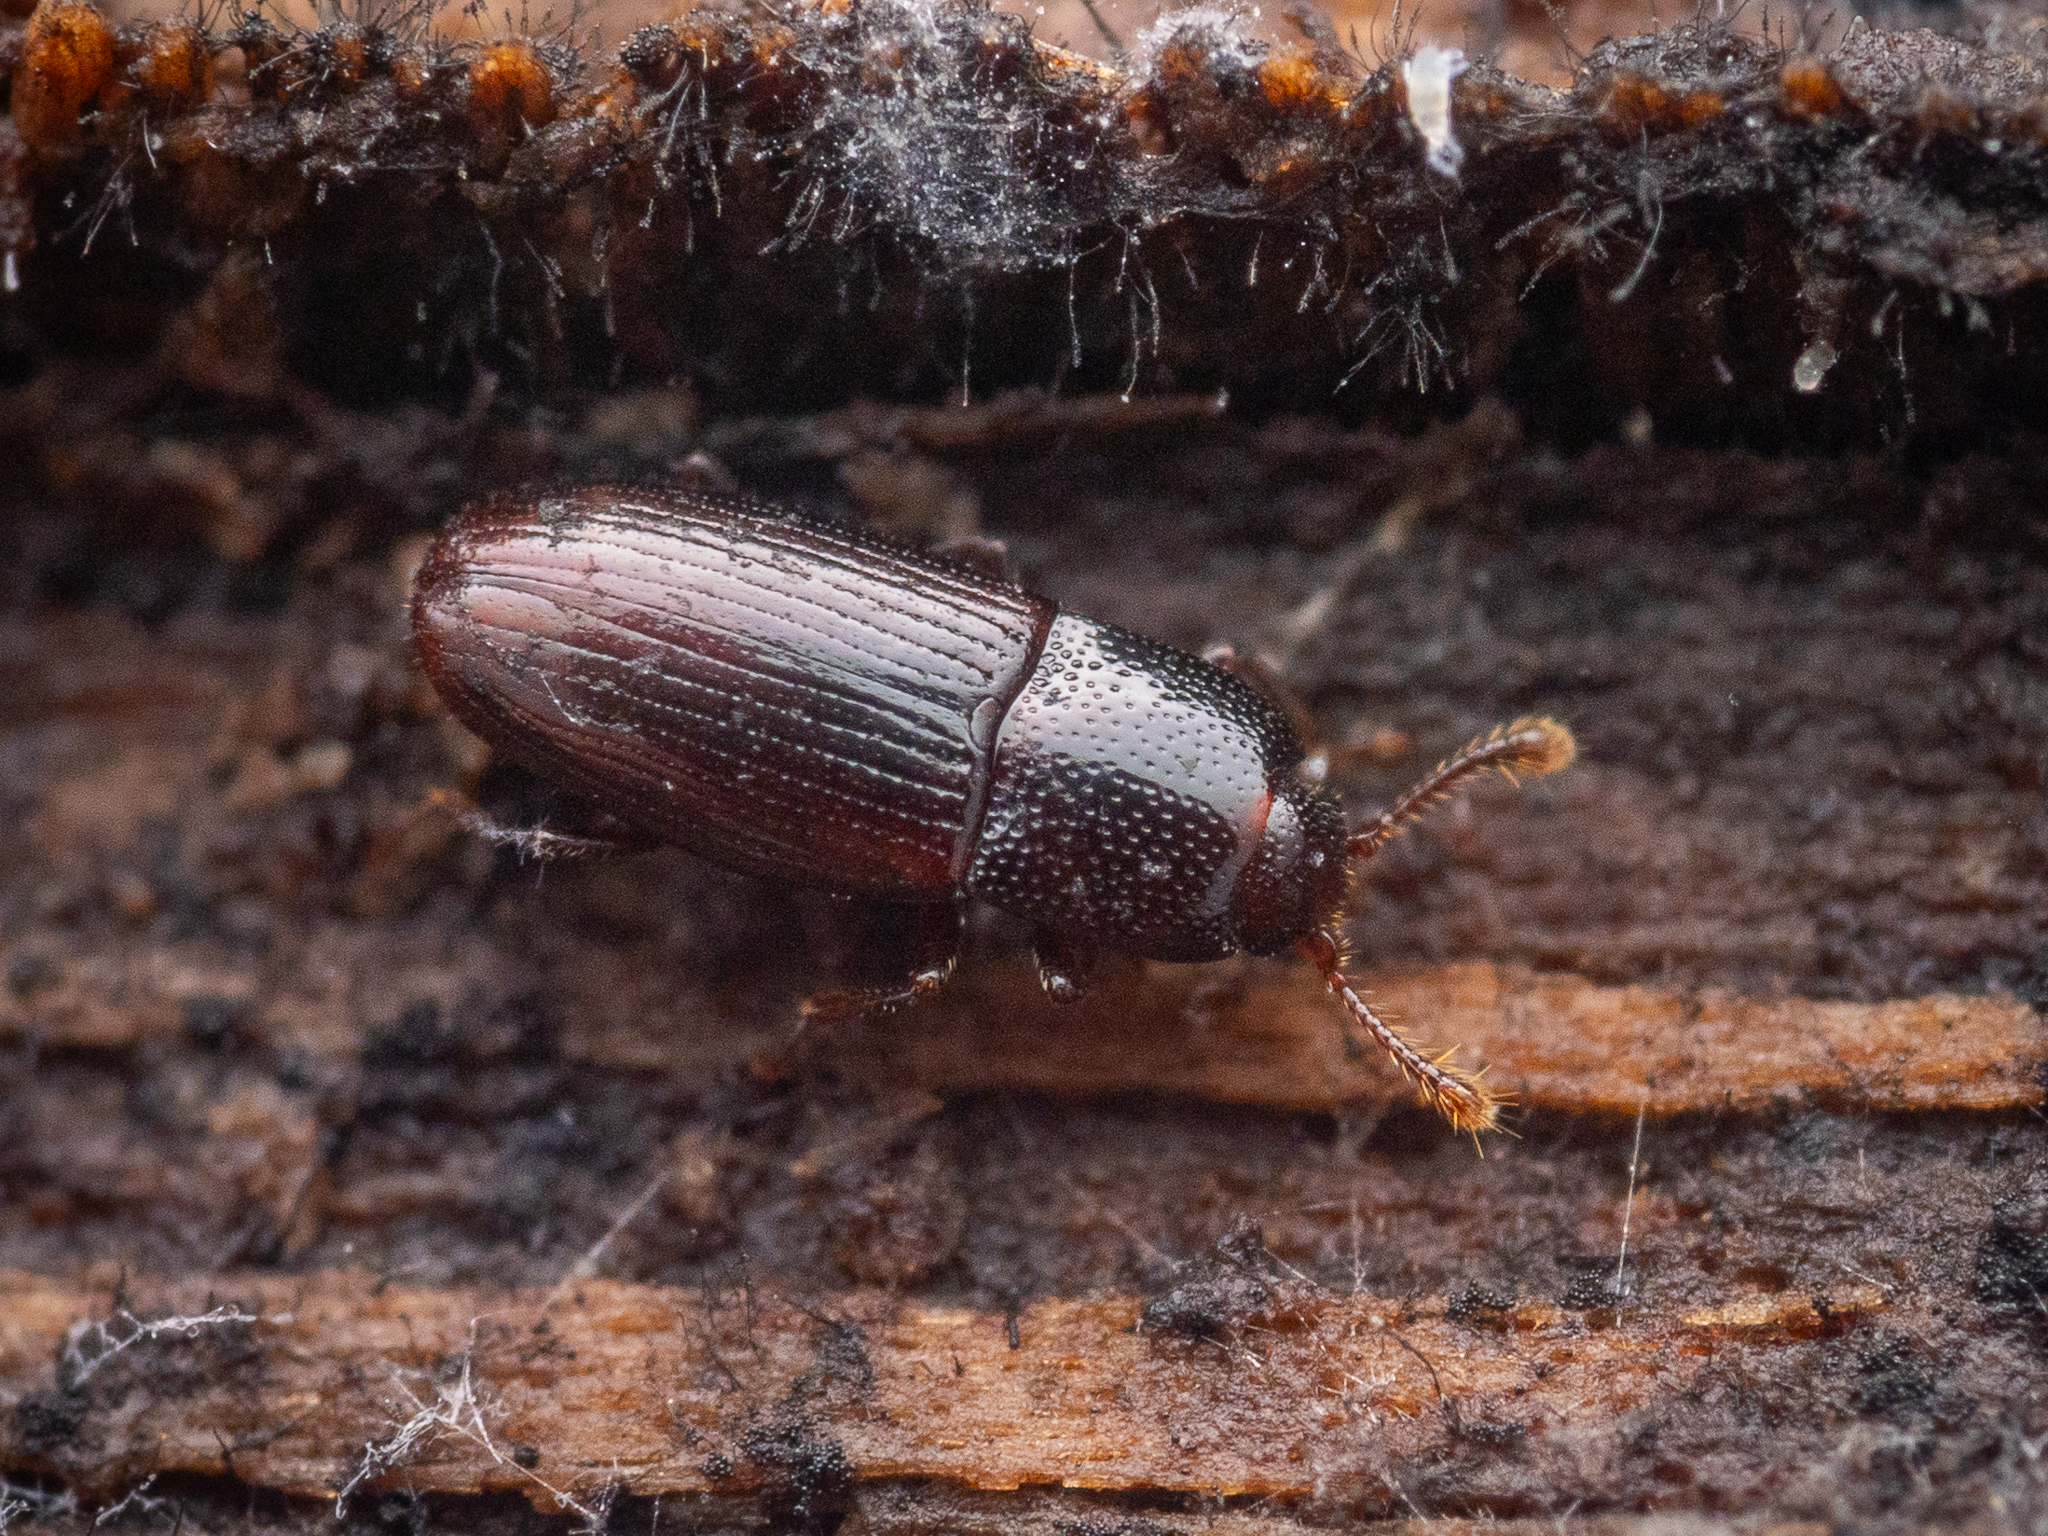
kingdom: Animalia
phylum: Arthropoda
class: Insecta
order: Coleoptera
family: Cerylonidae
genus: Cerylon
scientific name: Cerylon histeroides
